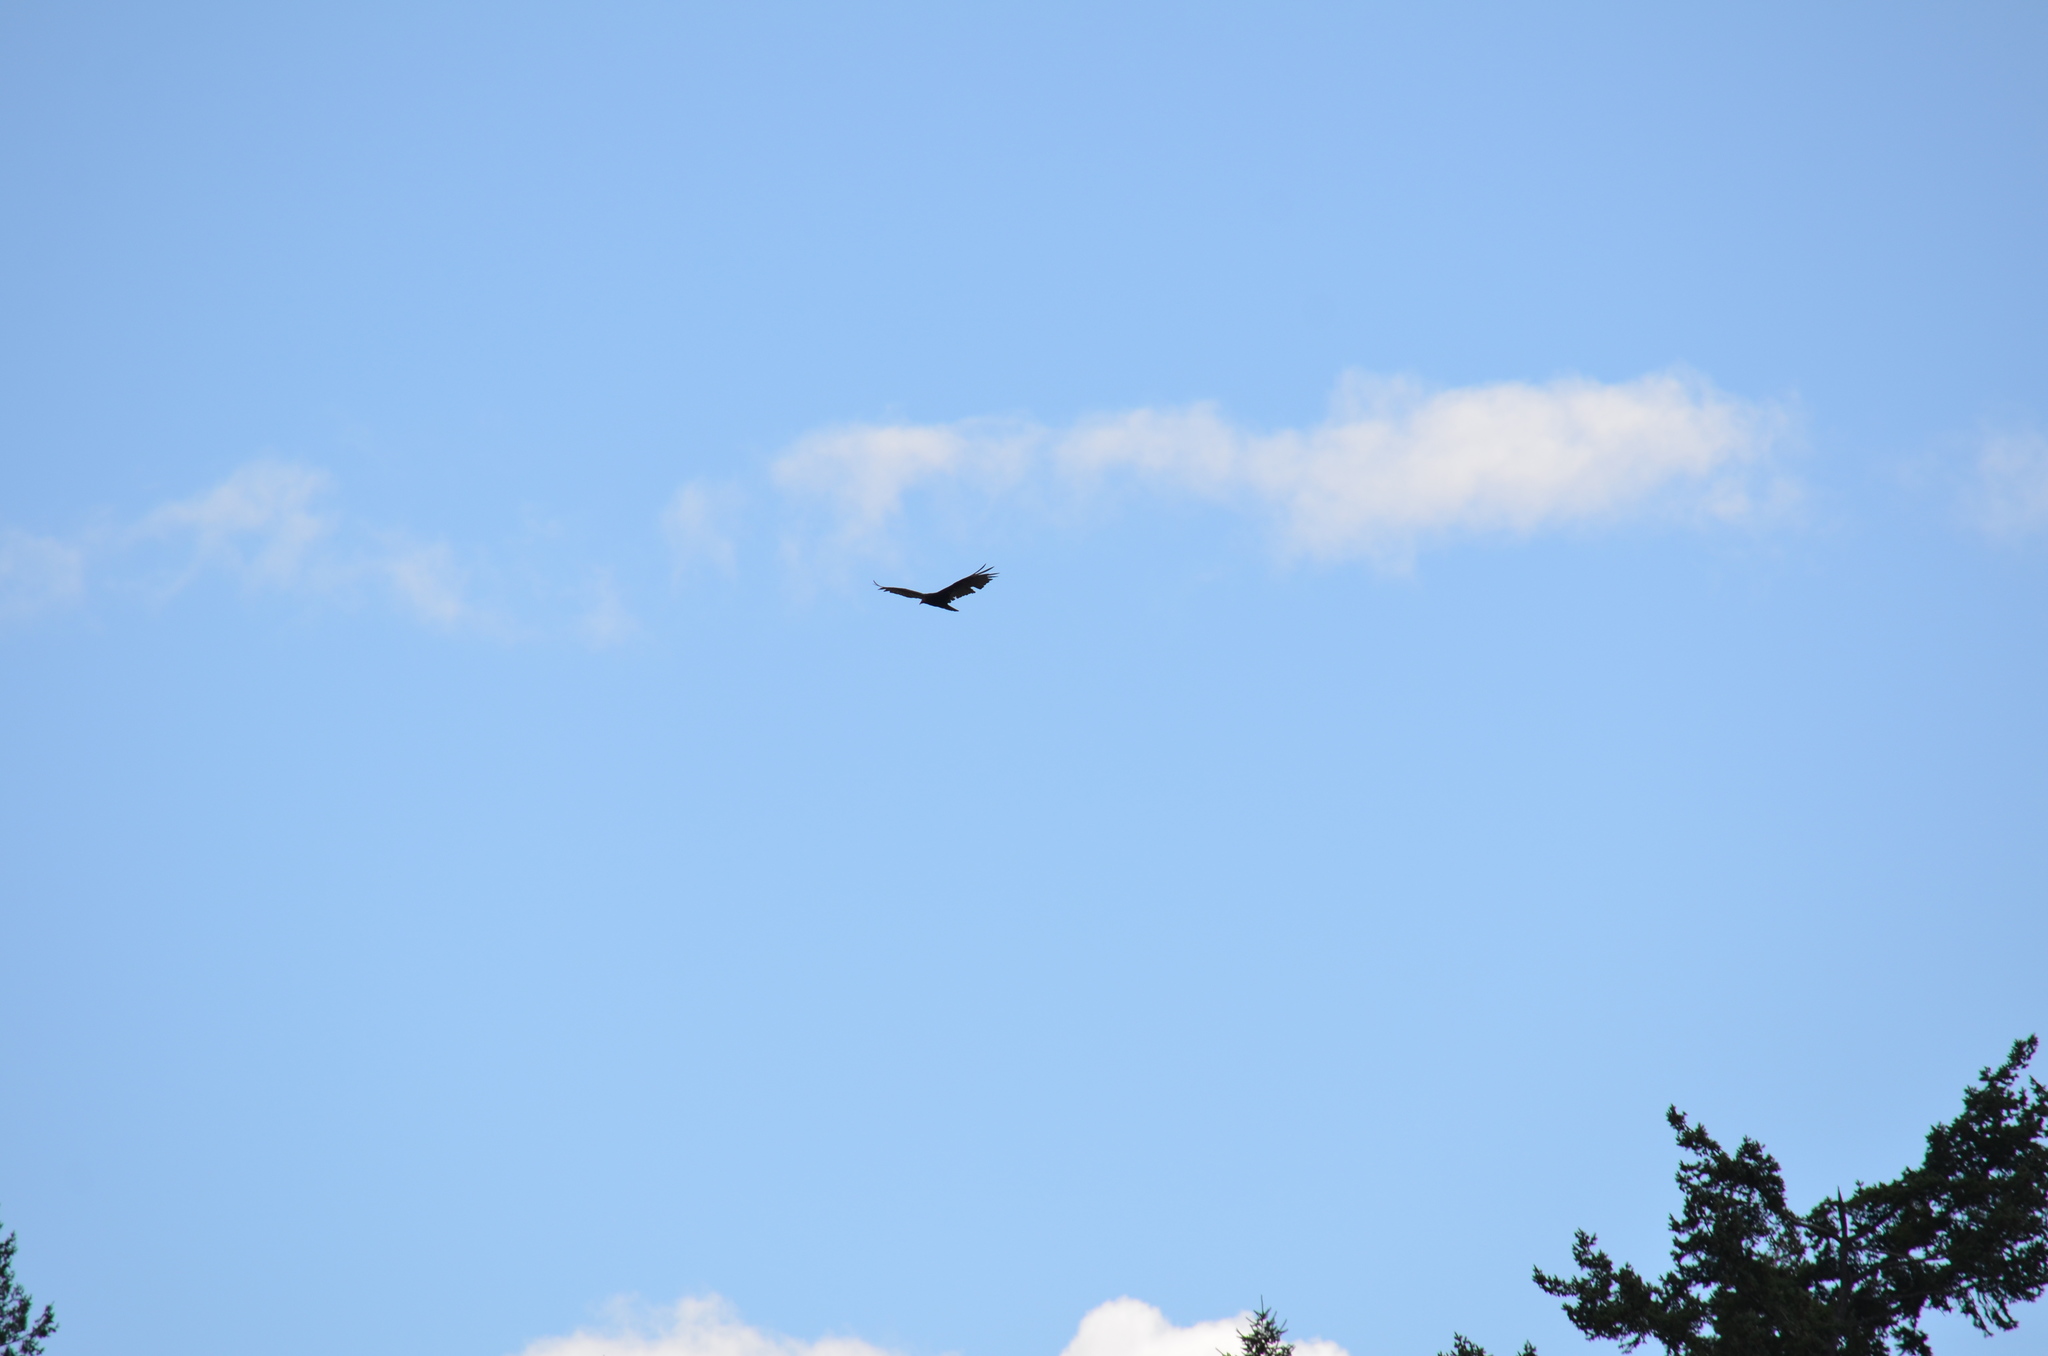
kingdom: Animalia
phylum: Chordata
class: Aves
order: Accipitriformes
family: Cathartidae
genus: Cathartes
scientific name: Cathartes aura
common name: Turkey vulture
